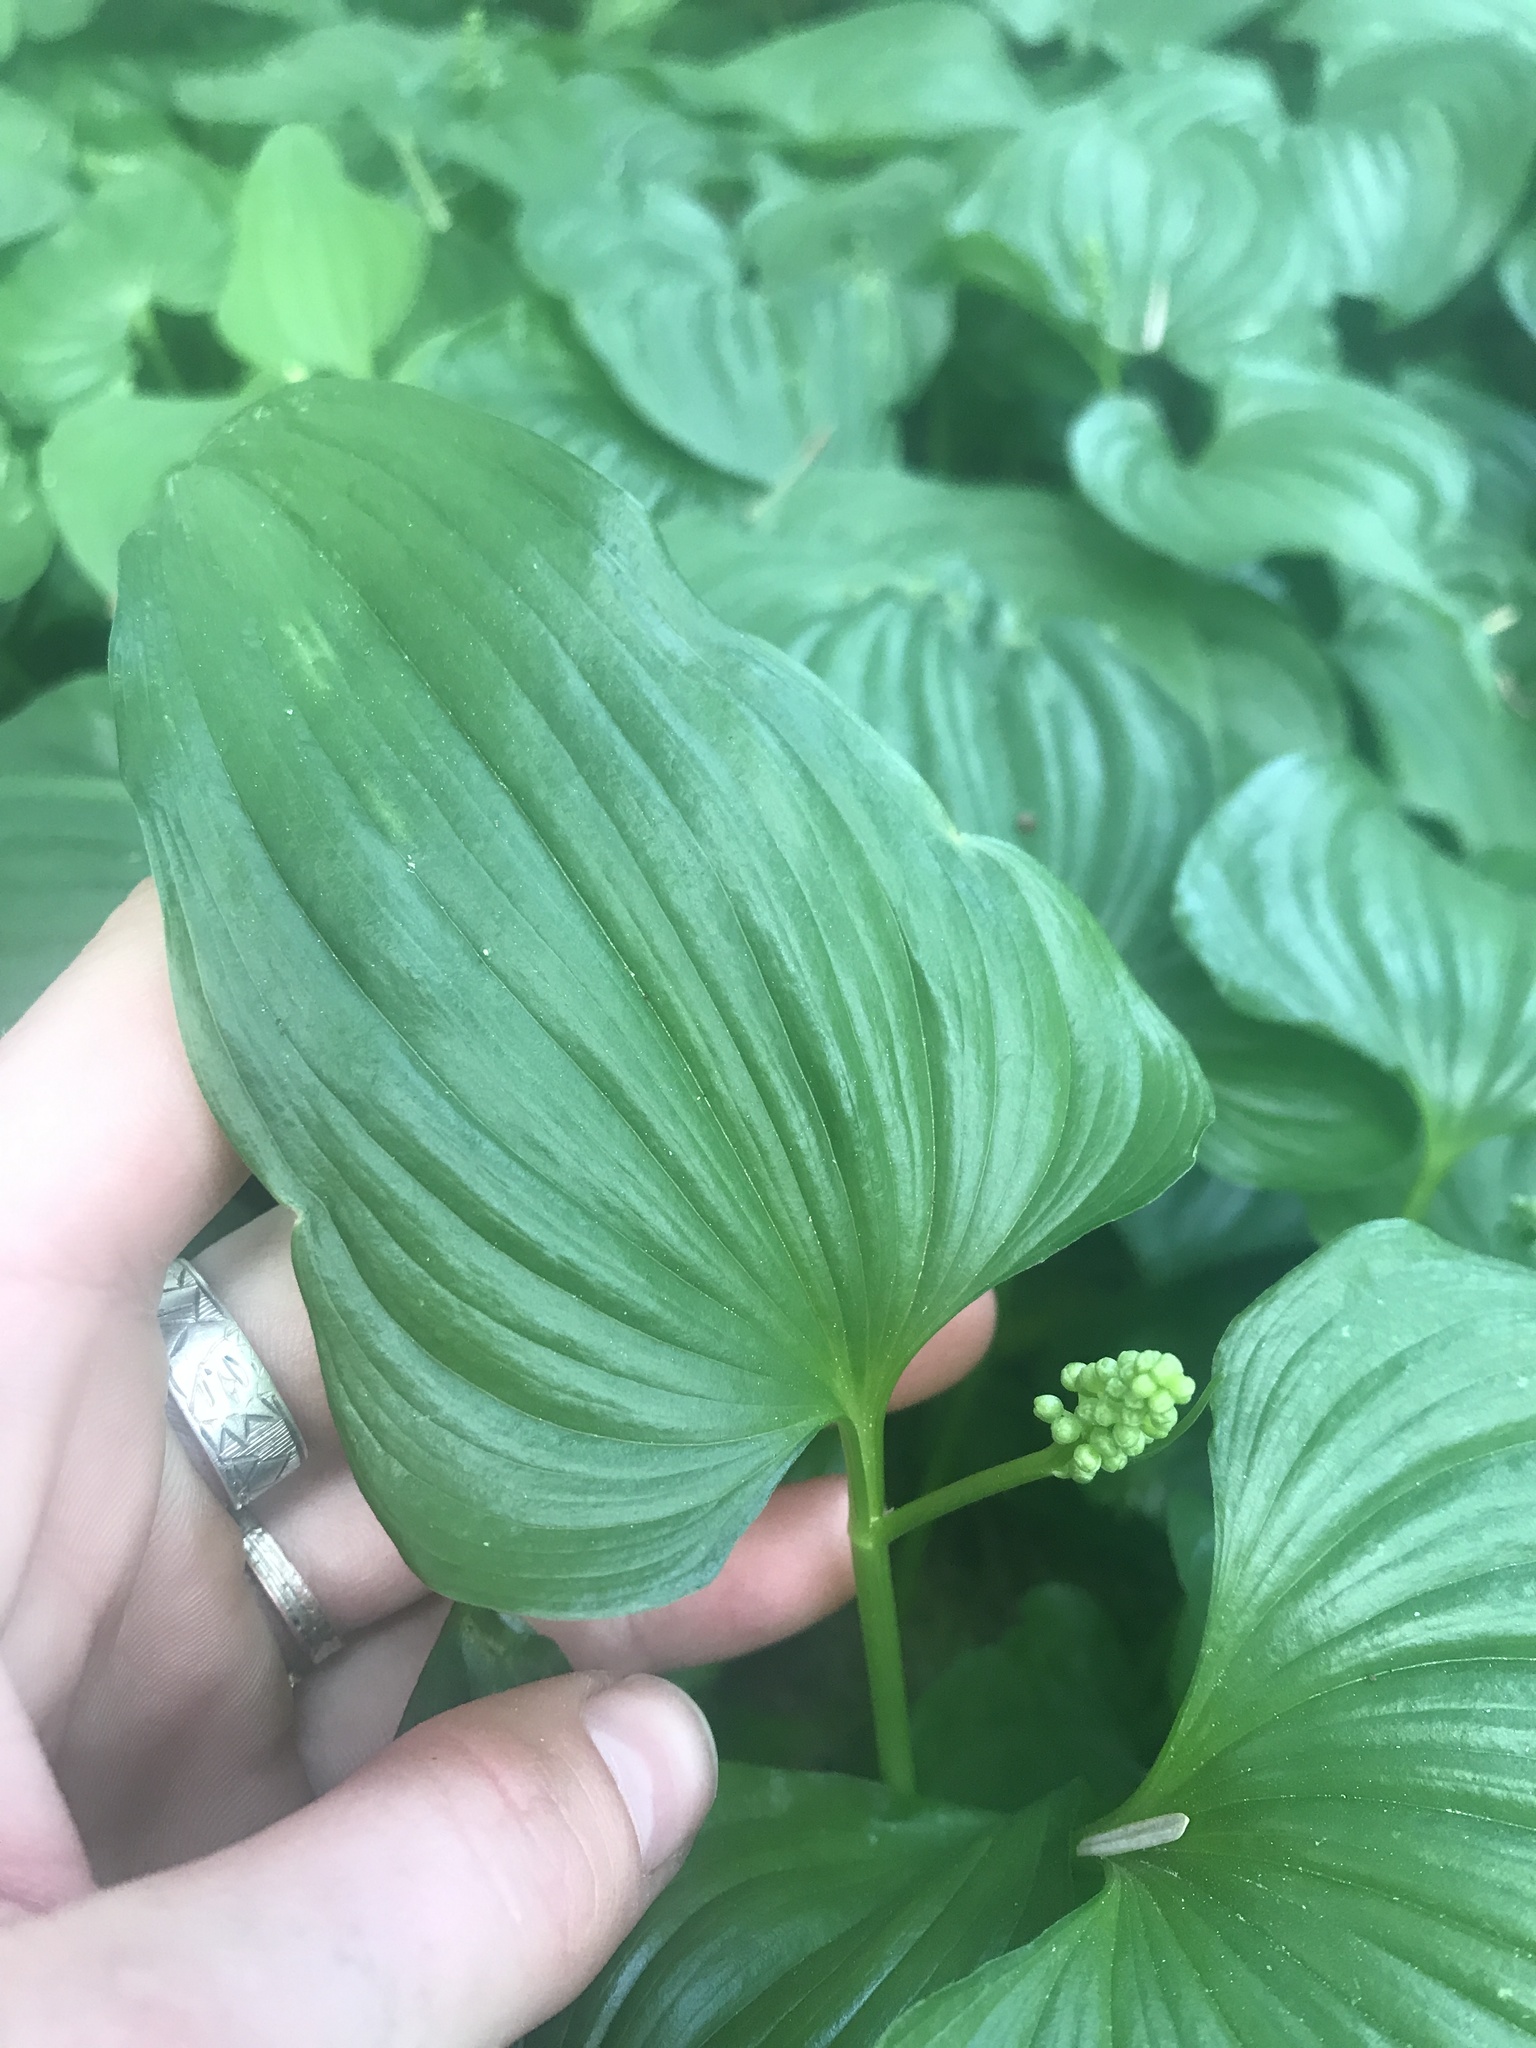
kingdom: Plantae
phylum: Tracheophyta
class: Liliopsida
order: Asparagales
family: Asparagaceae
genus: Maianthemum
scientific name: Maianthemum dilatatum
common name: False lily-of-the-valley
